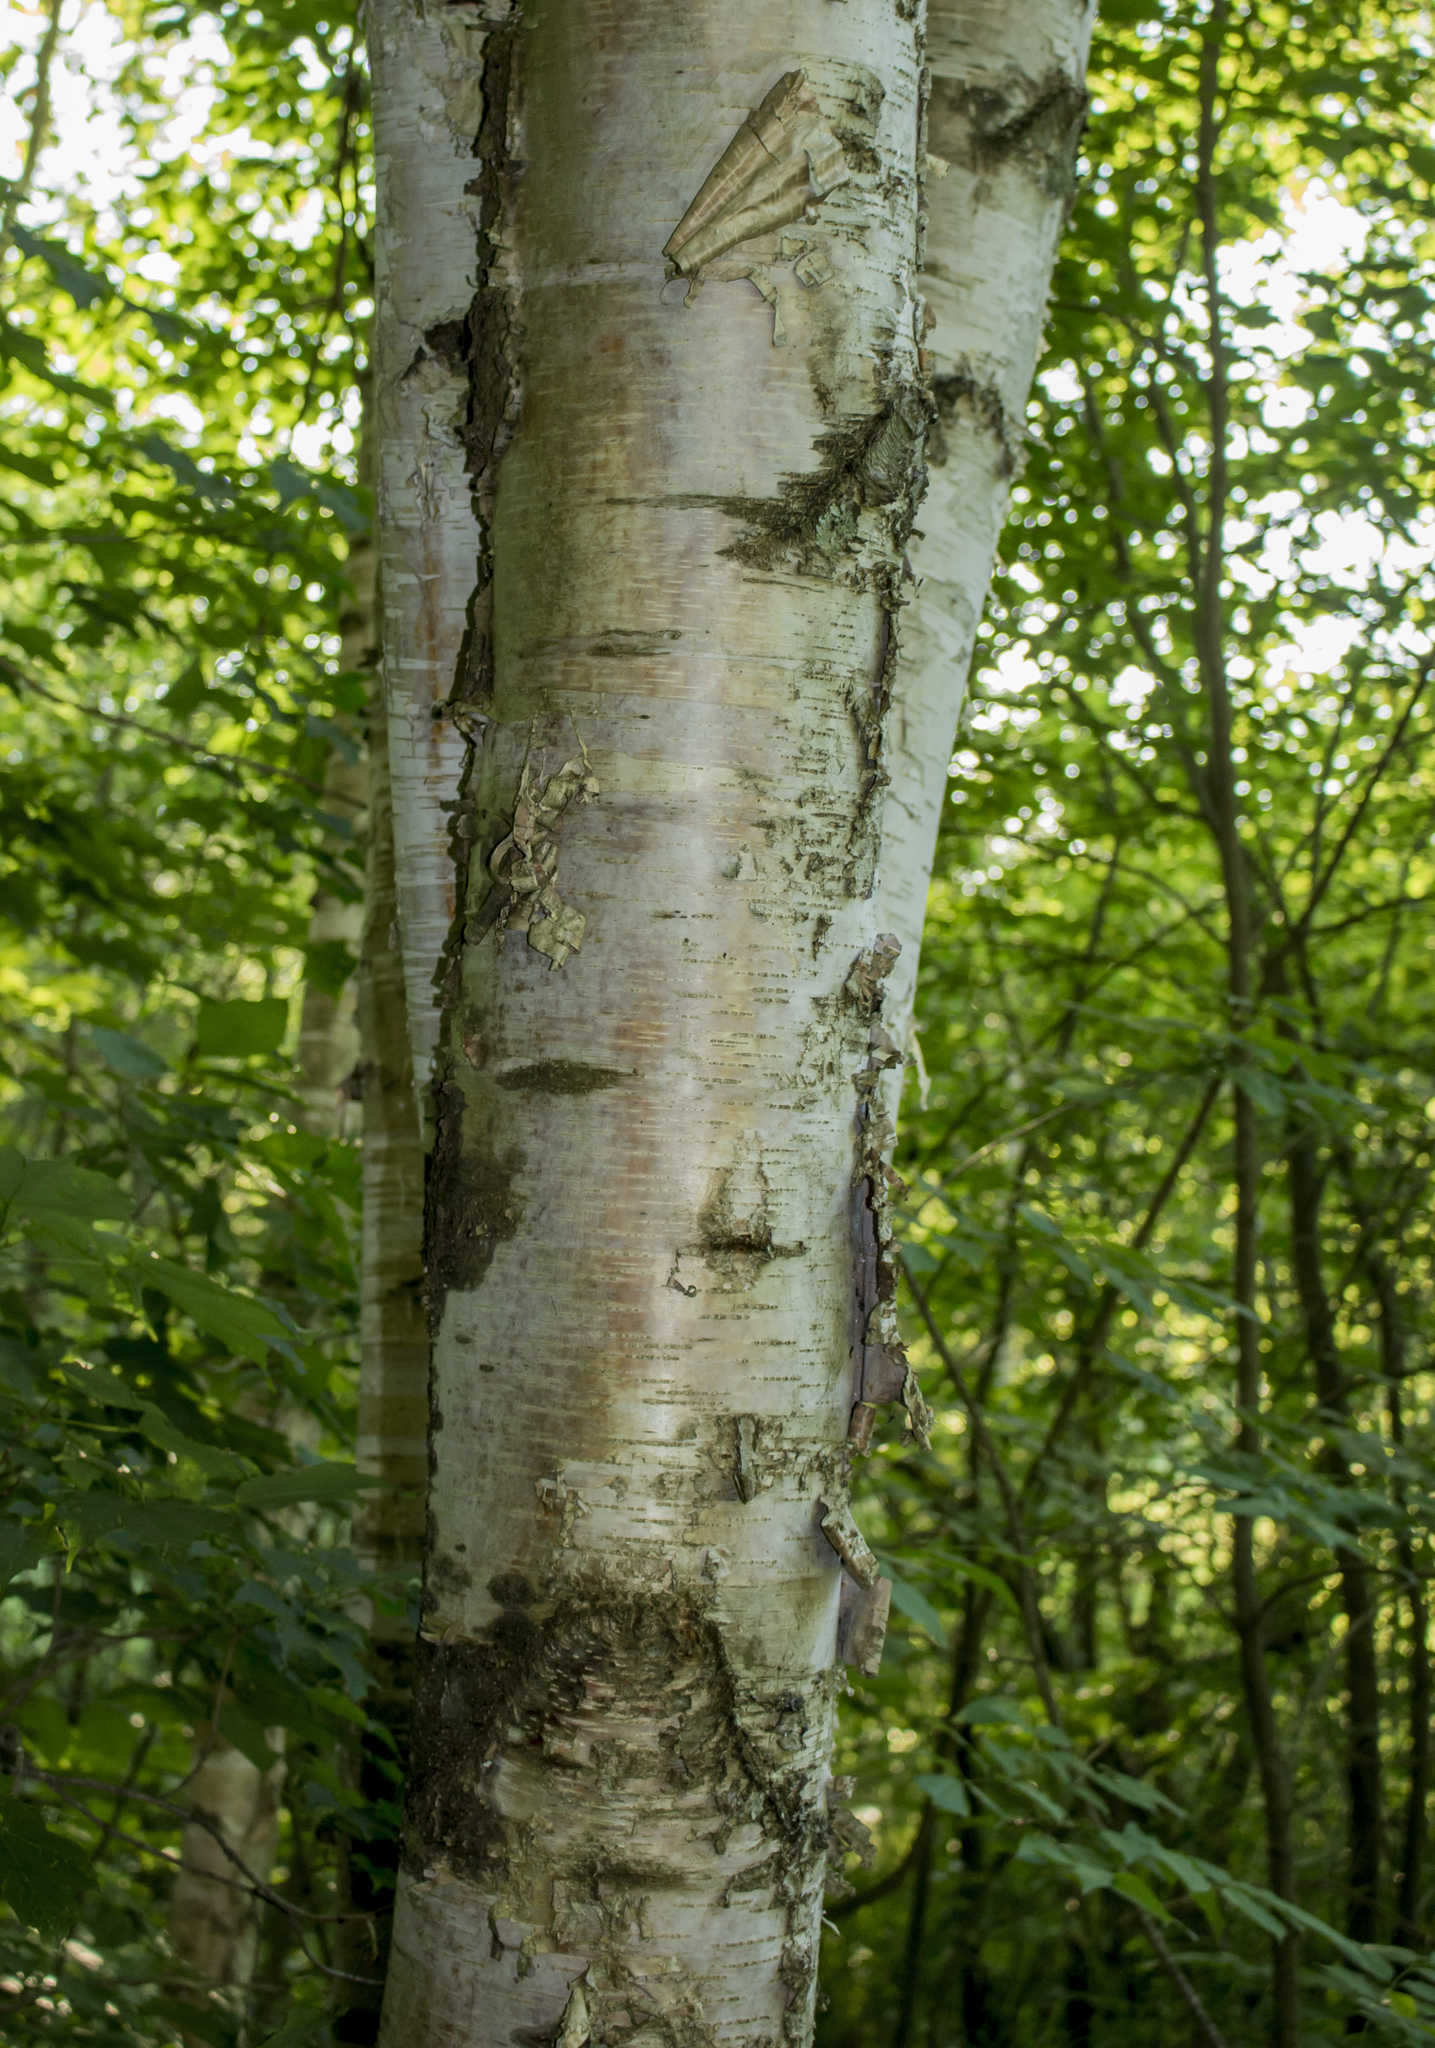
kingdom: Plantae
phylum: Tracheophyta
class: Magnoliopsida
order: Fagales
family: Betulaceae
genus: Betula
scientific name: Betula papyrifera
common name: Paper birch
